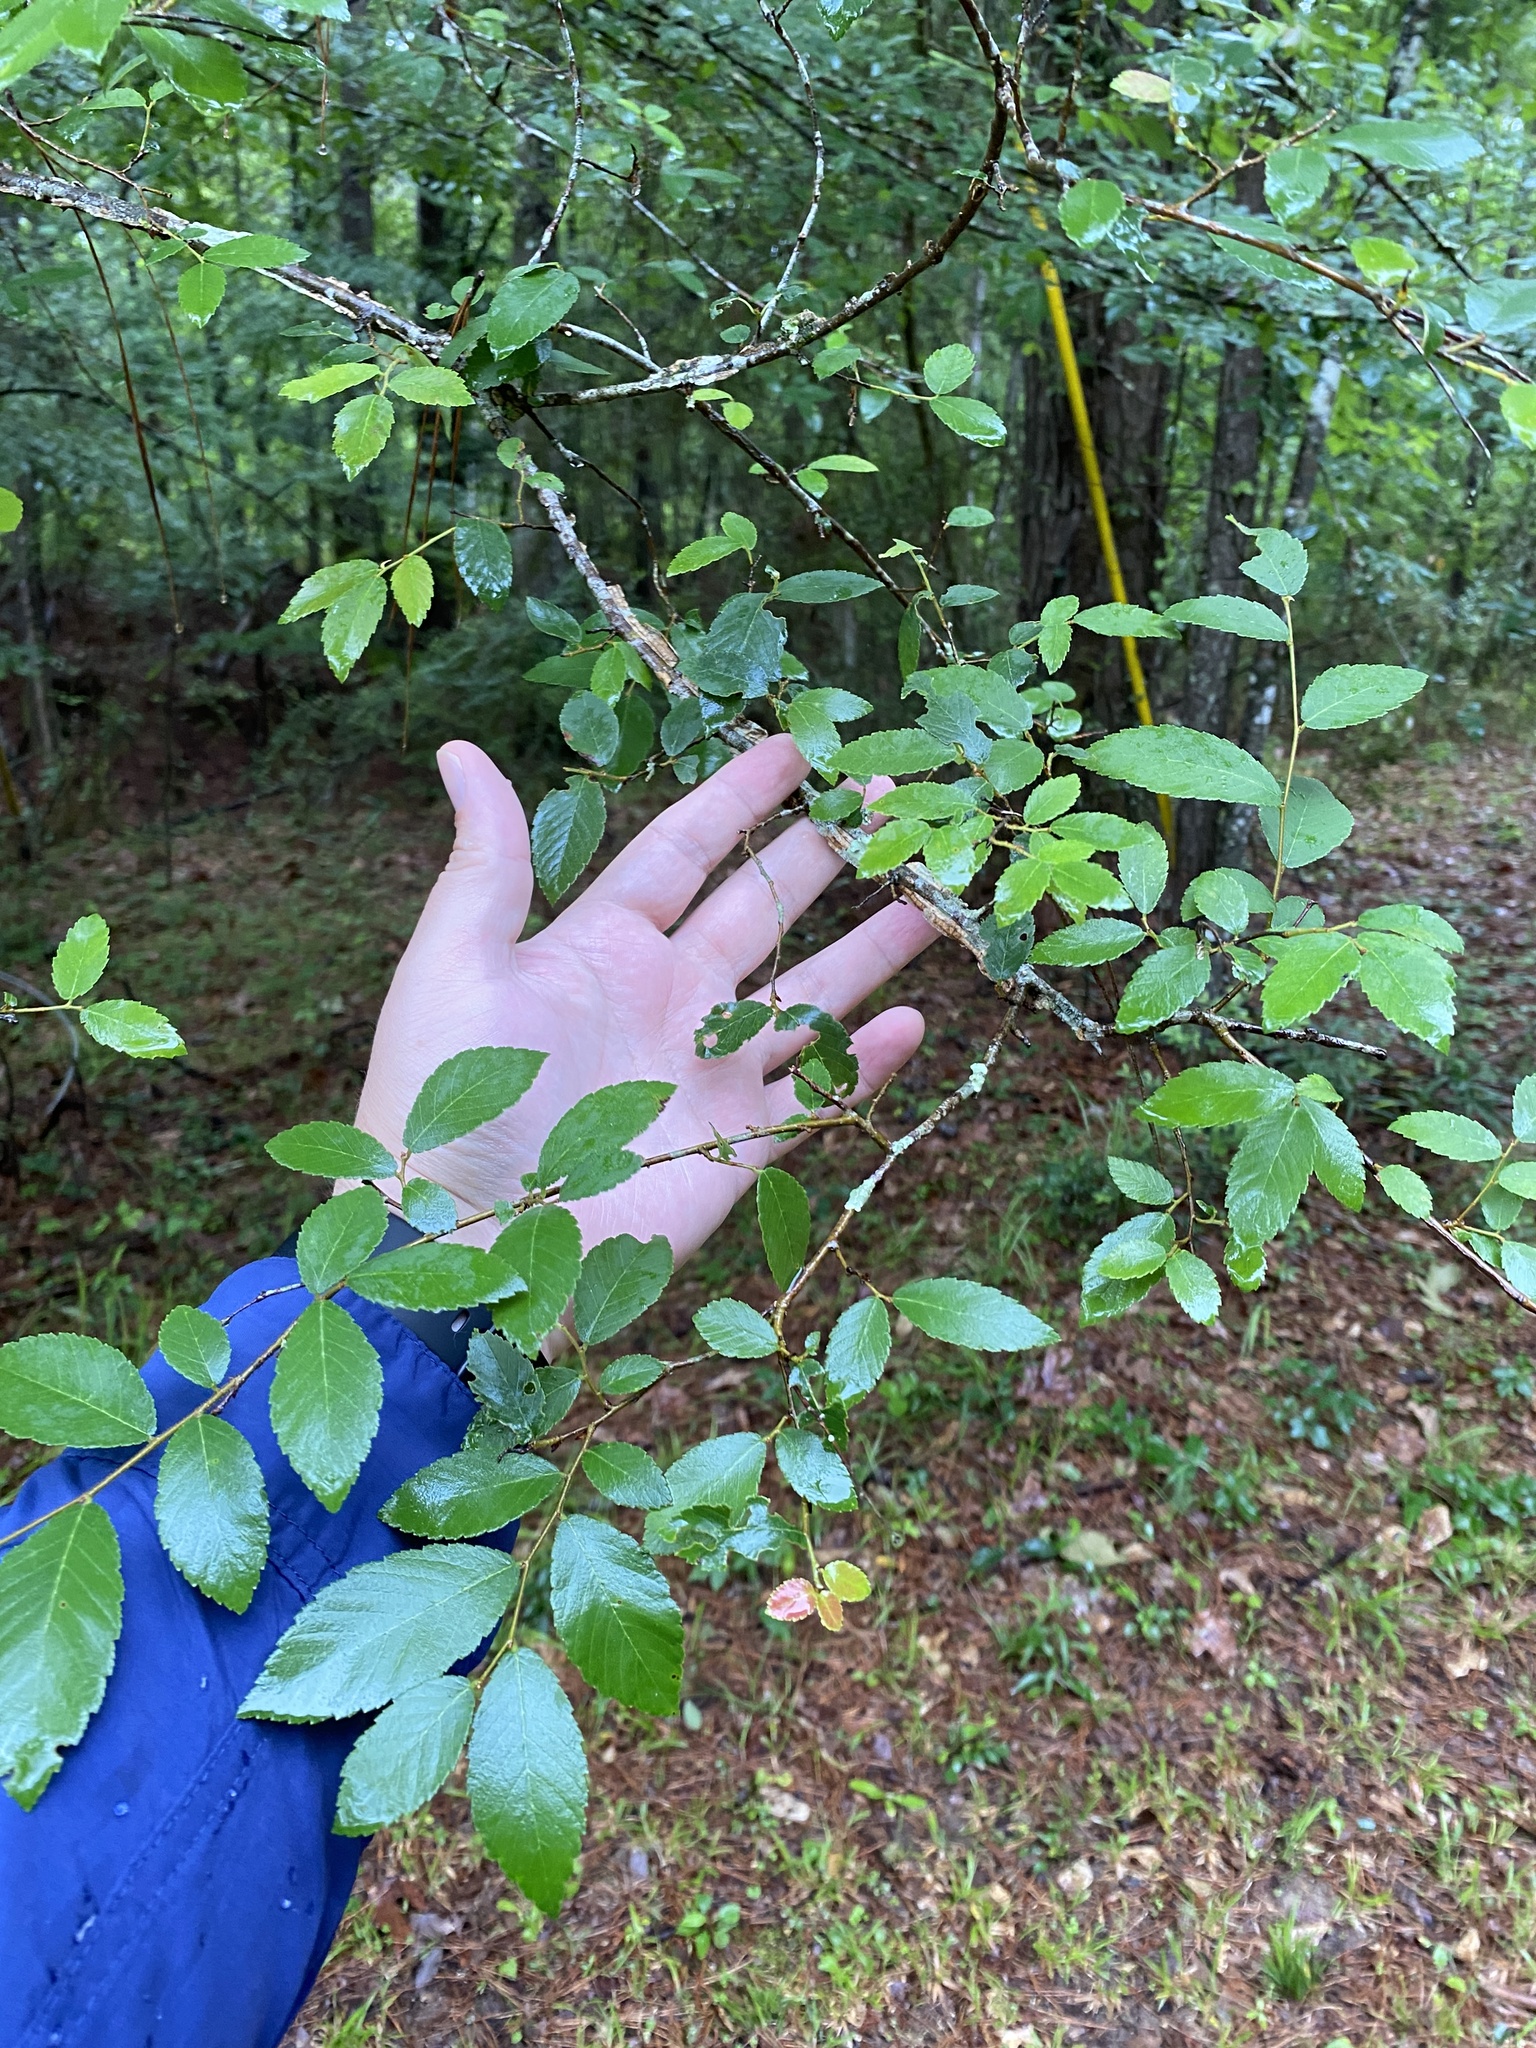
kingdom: Plantae
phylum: Tracheophyta
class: Magnoliopsida
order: Rosales
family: Ulmaceae
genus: Ulmus
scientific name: Ulmus alata
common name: Winged elm
